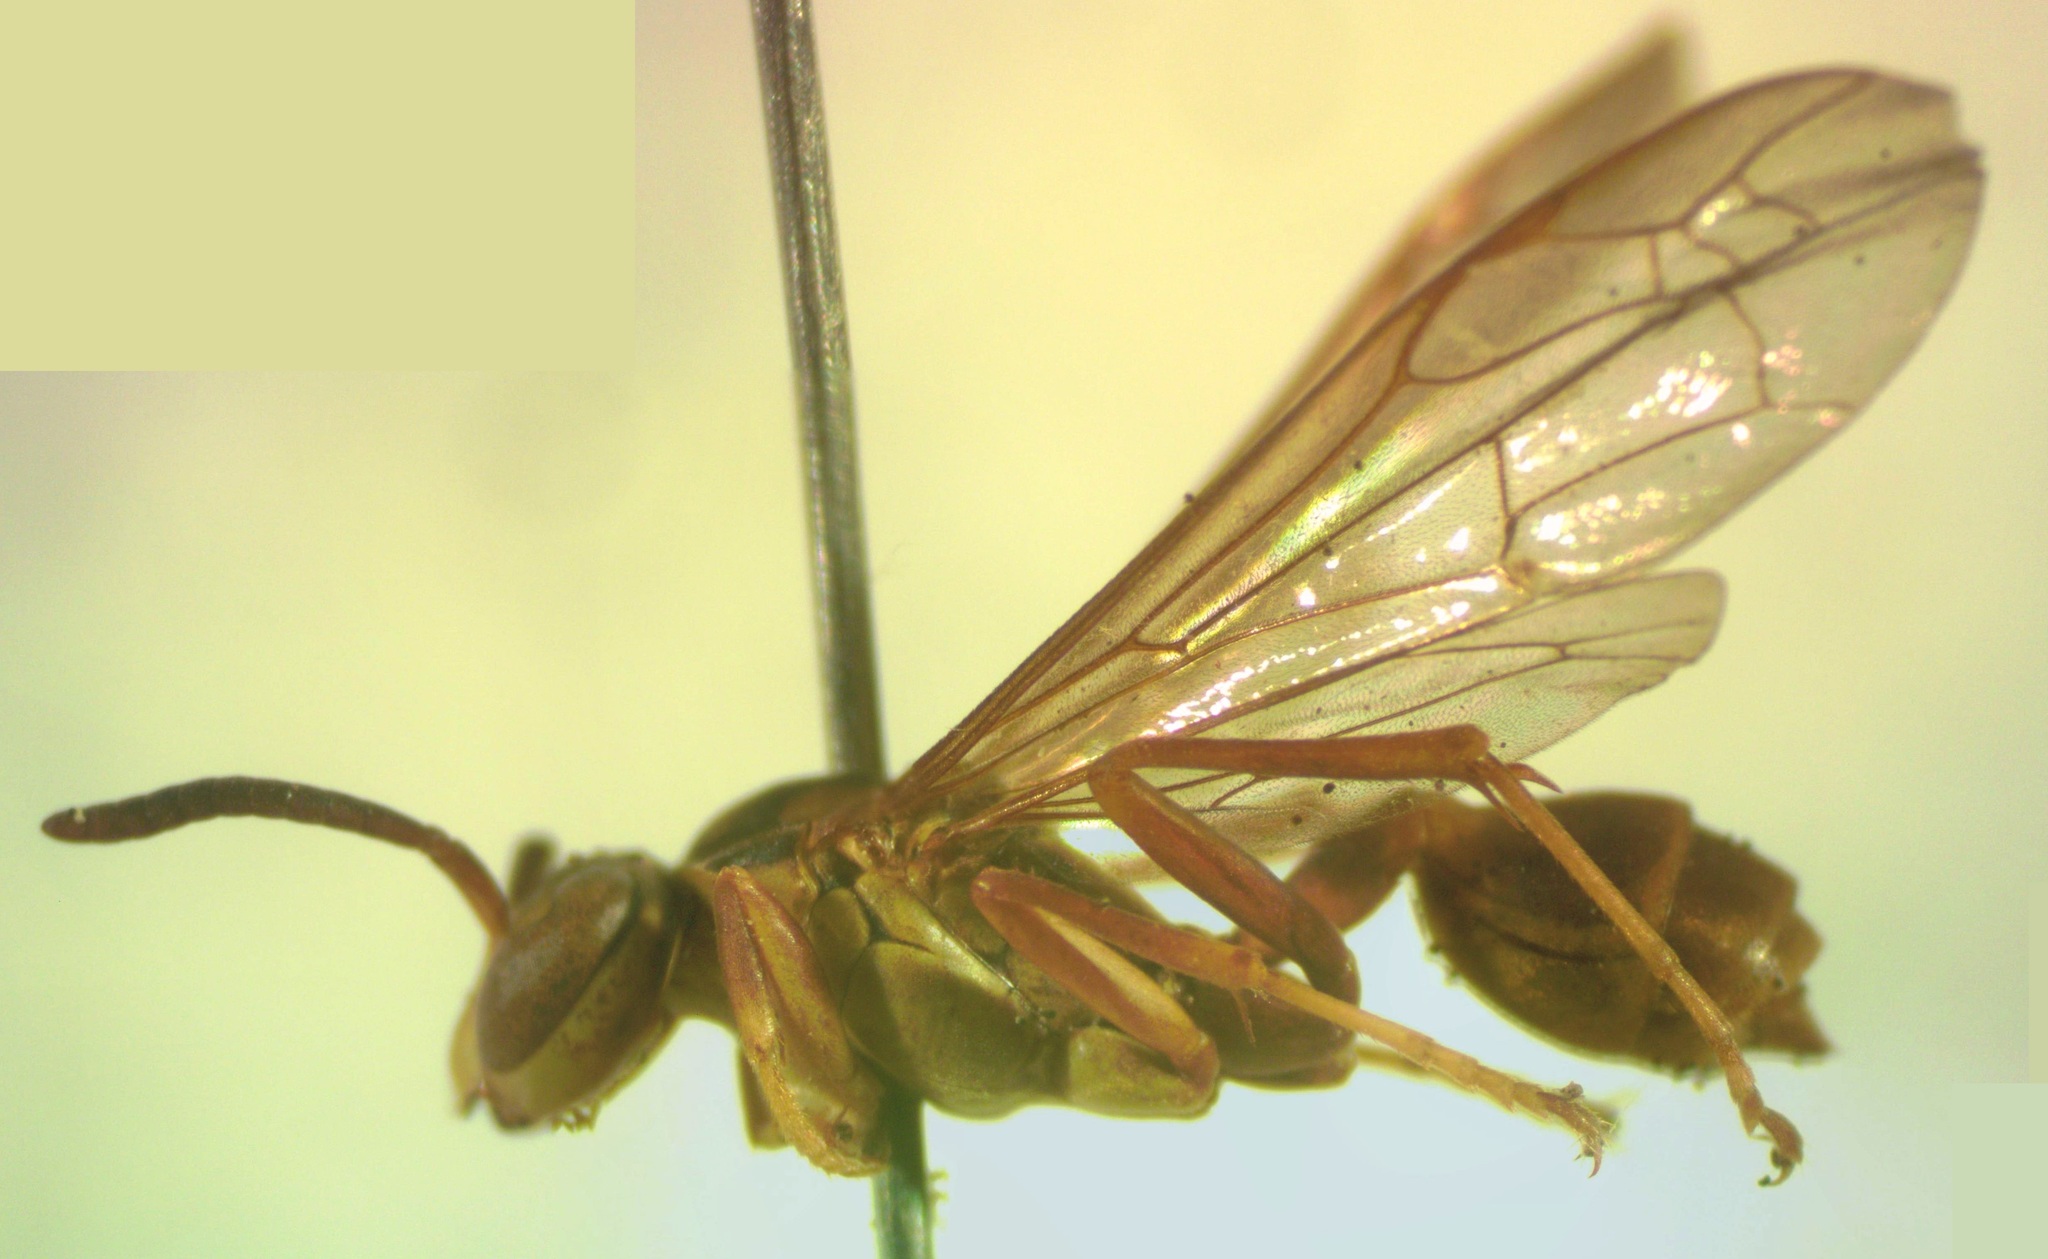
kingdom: Animalia
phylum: Arthropoda
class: Insecta
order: Hymenoptera
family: Vespidae
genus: Agelaia
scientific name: Agelaia centralis
